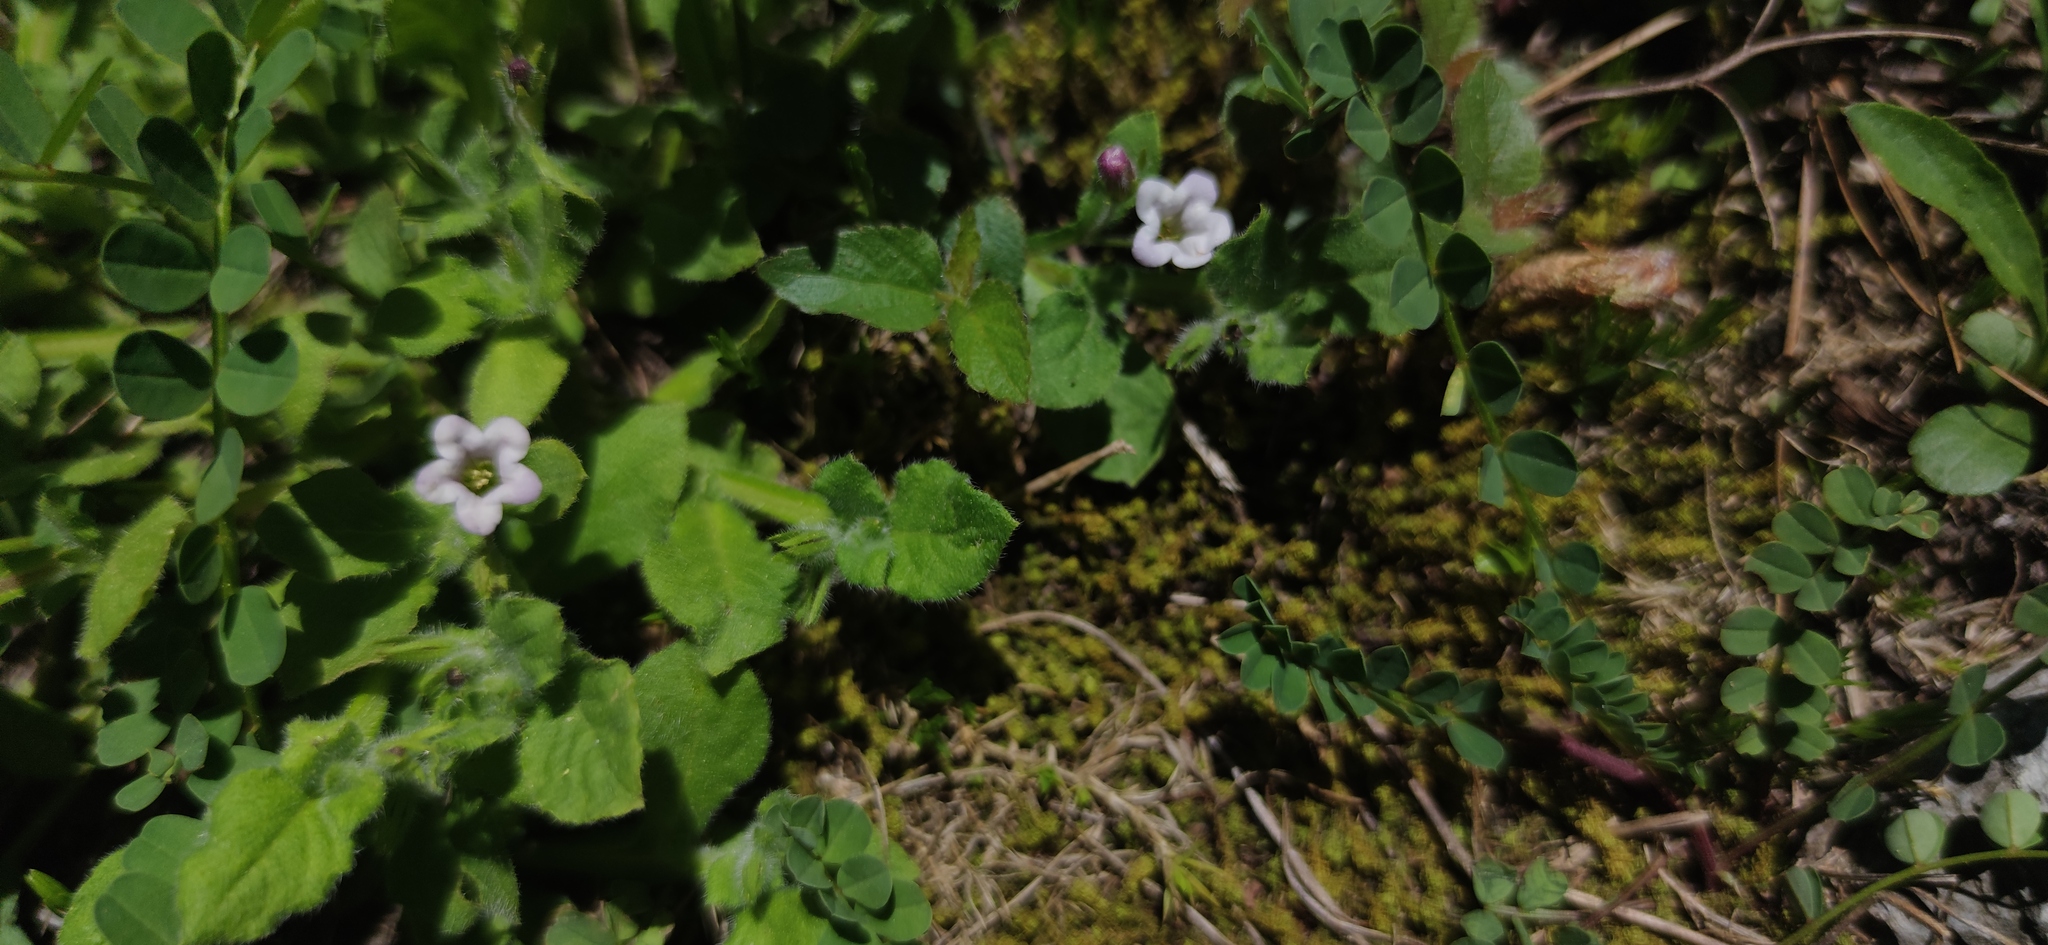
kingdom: Plantae
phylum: Tracheophyta
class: Magnoliopsida
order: Boraginales
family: Namaceae
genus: Nama
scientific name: Nama jamaicensis
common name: Jamaicanweed
